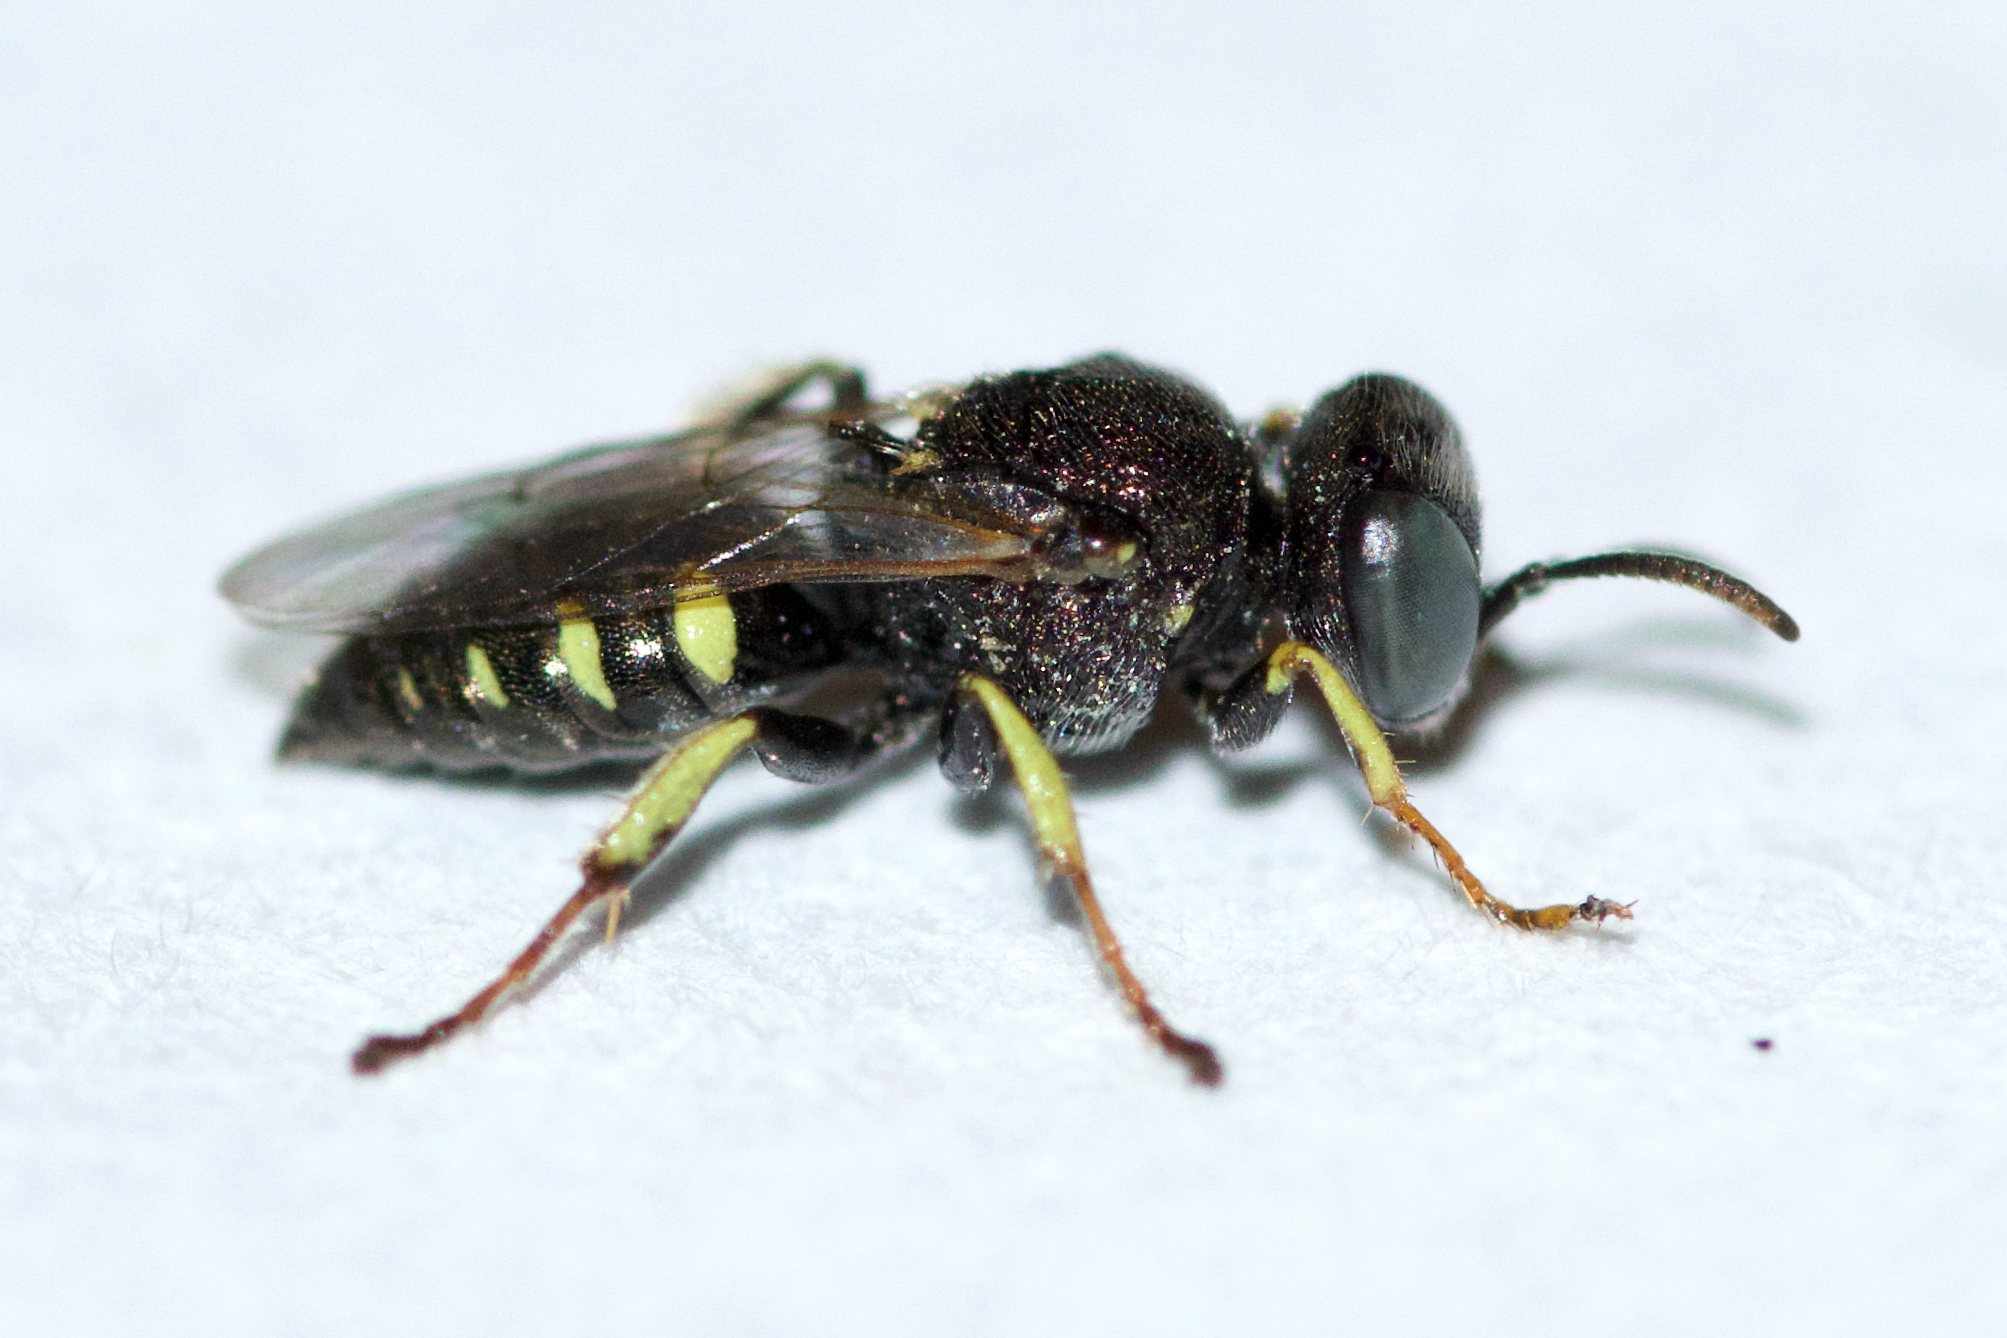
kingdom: Animalia
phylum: Arthropoda
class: Insecta
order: Hymenoptera
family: Crabronidae
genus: Oxybelus
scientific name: Oxybelus bipunctatus
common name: Square-headed wasp
